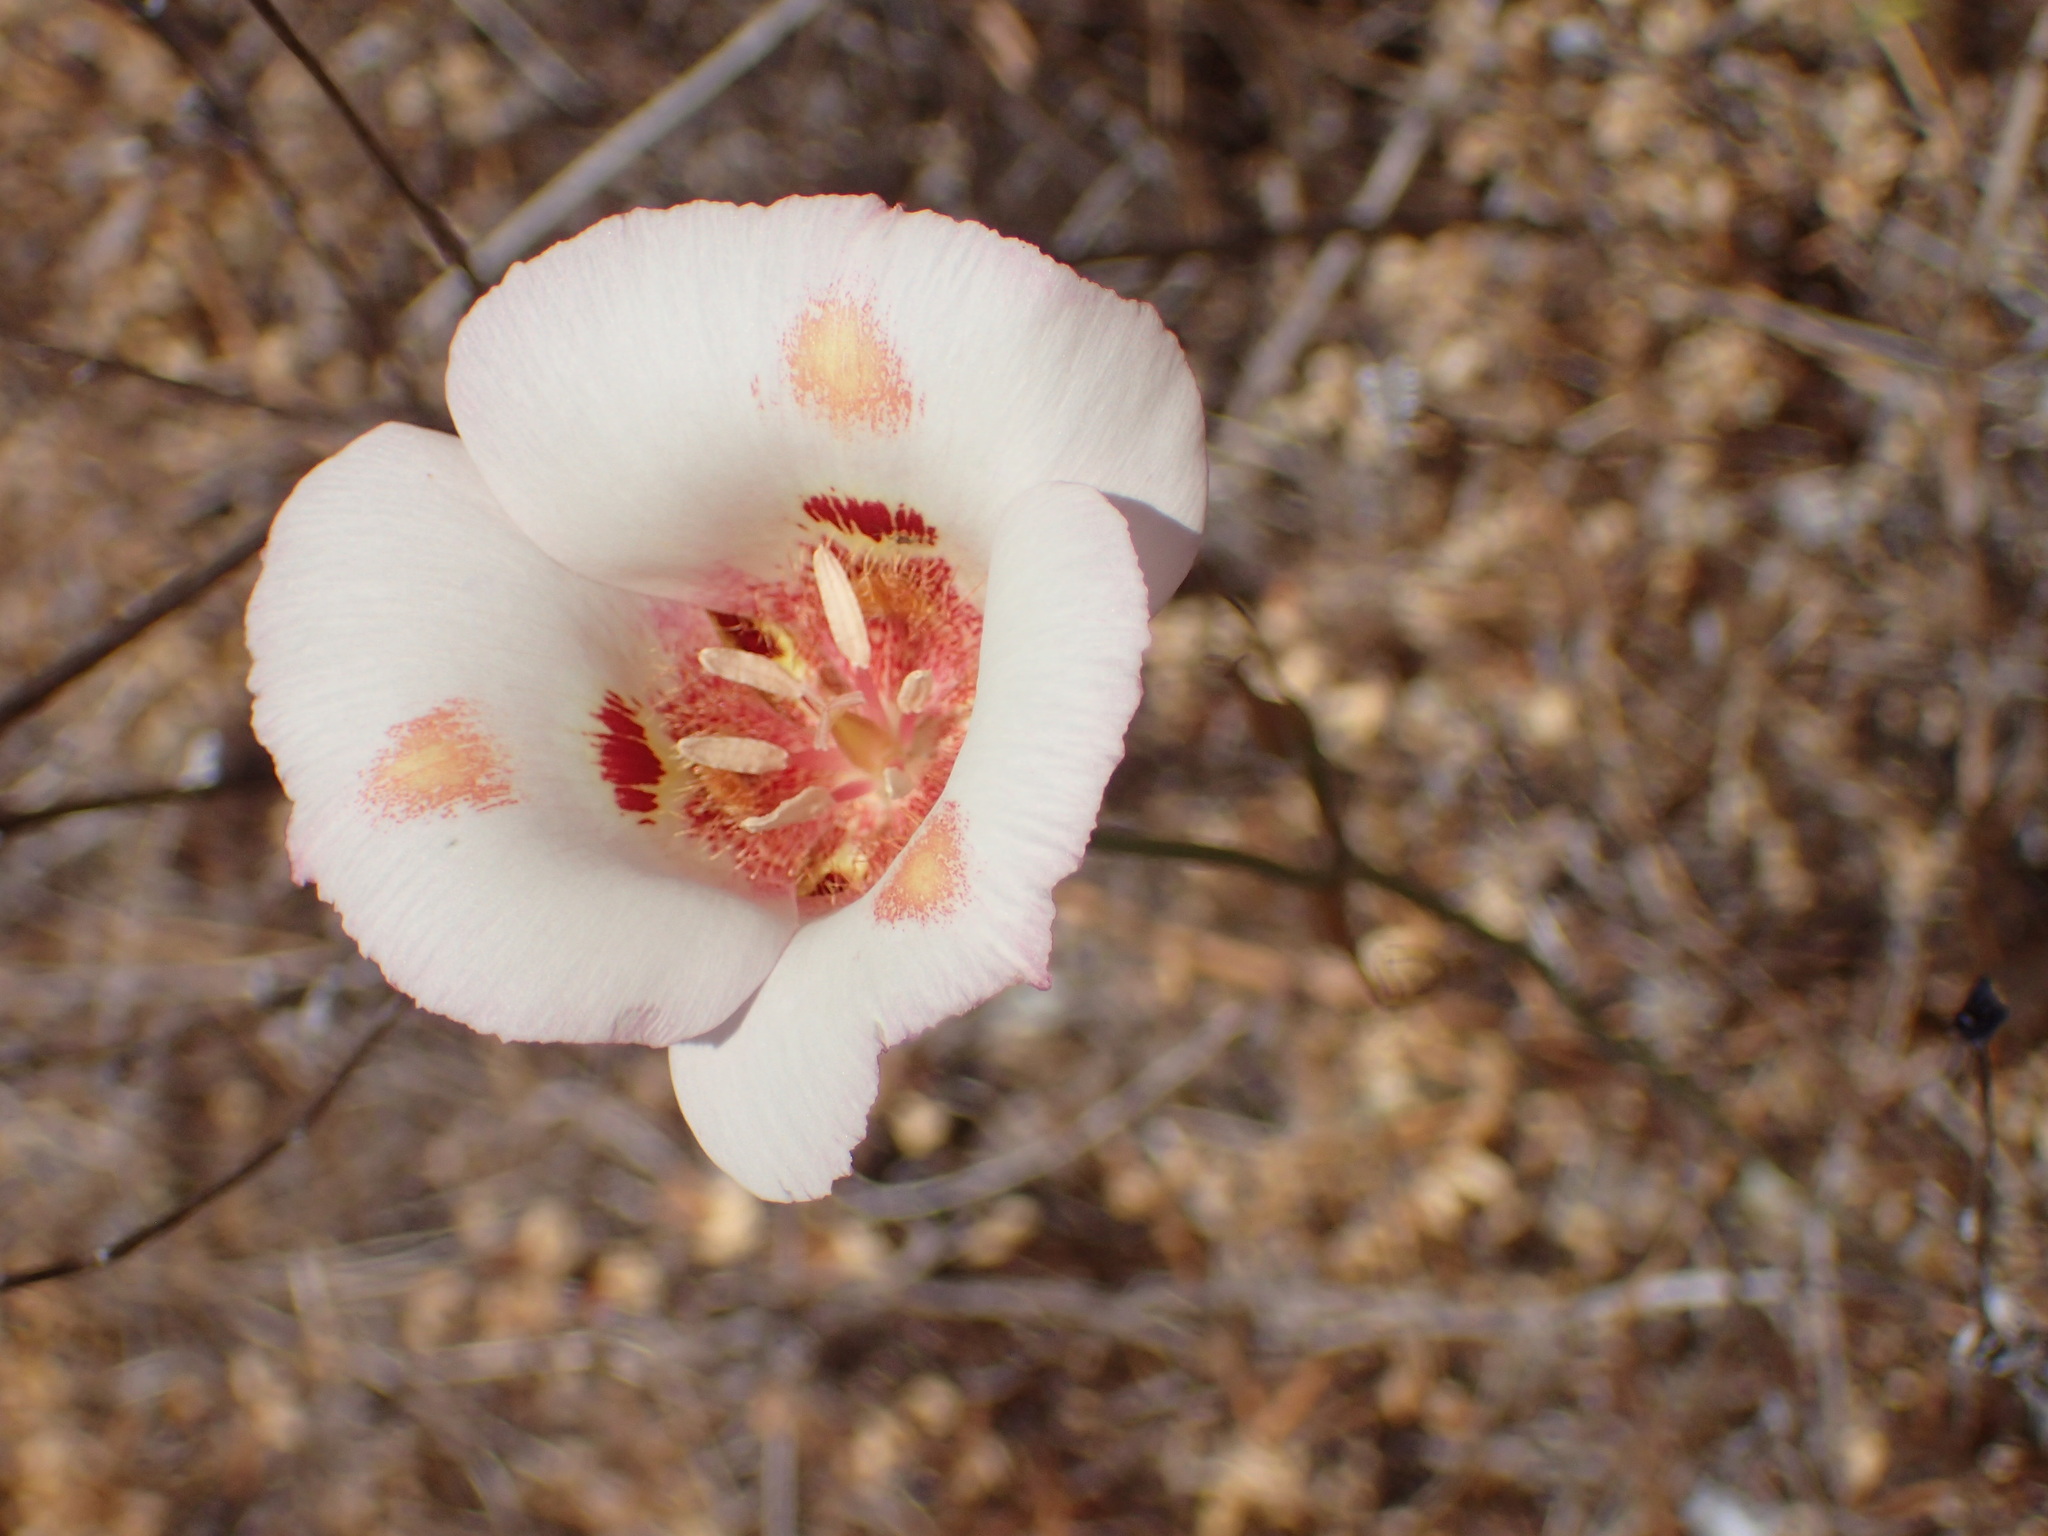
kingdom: Plantae
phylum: Tracheophyta
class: Liliopsida
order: Liliales
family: Liliaceae
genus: Calochortus
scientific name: Calochortus venustus
